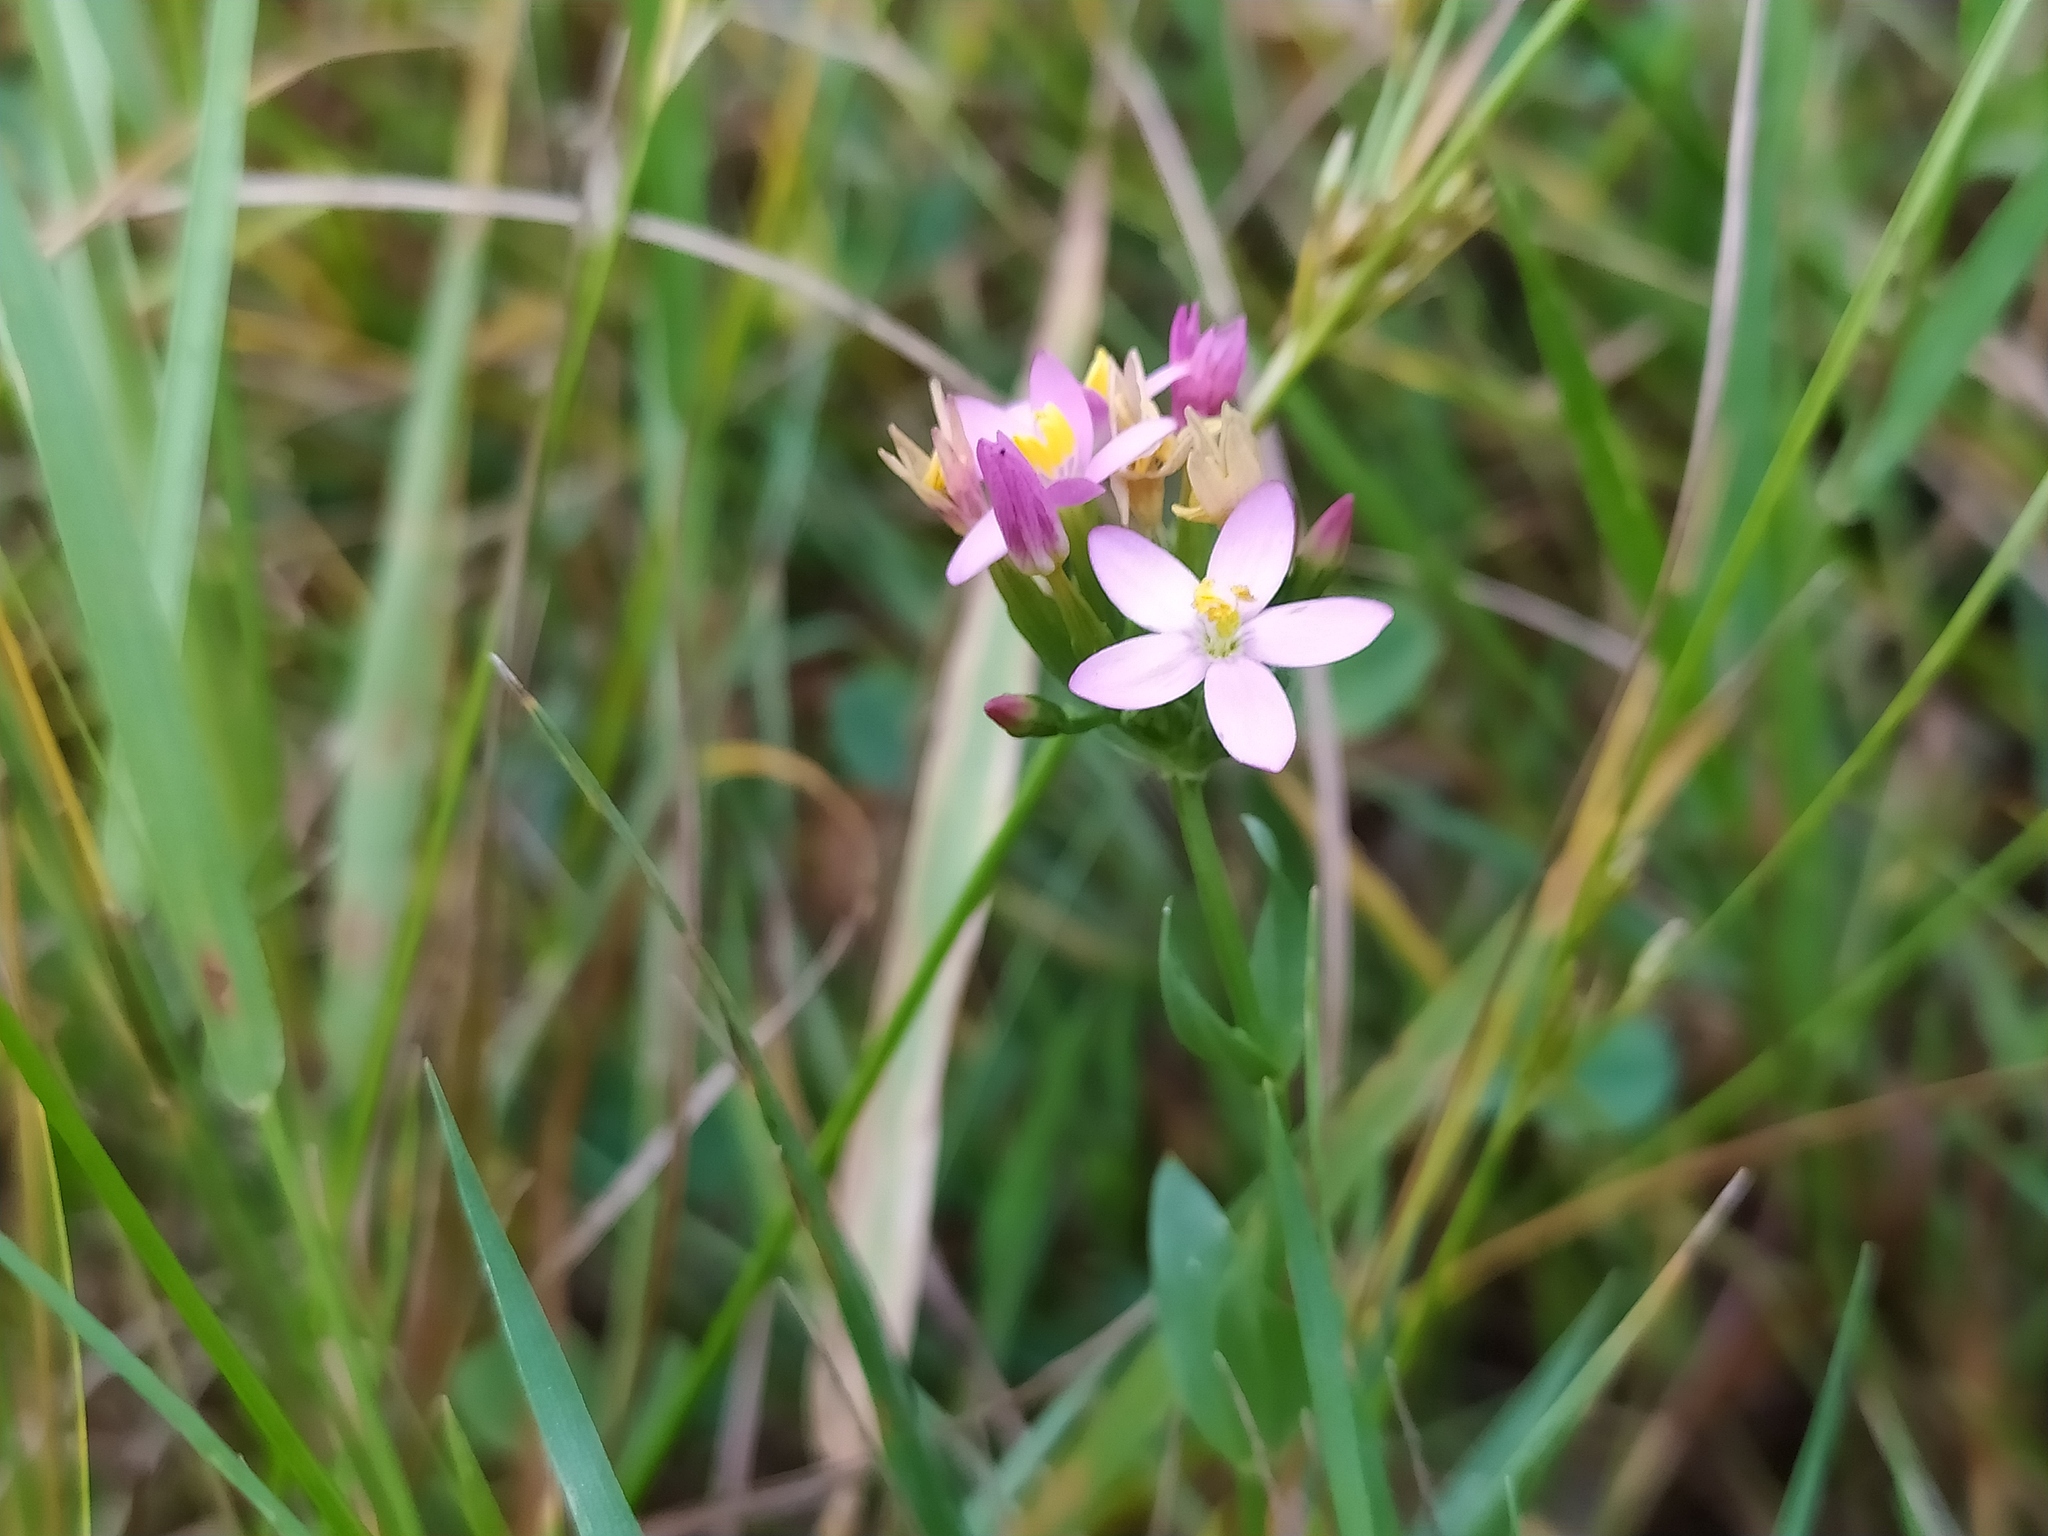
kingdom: Plantae
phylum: Tracheophyta
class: Magnoliopsida
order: Gentianales
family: Gentianaceae
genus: Centaurium
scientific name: Centaurium erythraea
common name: Common centaury
